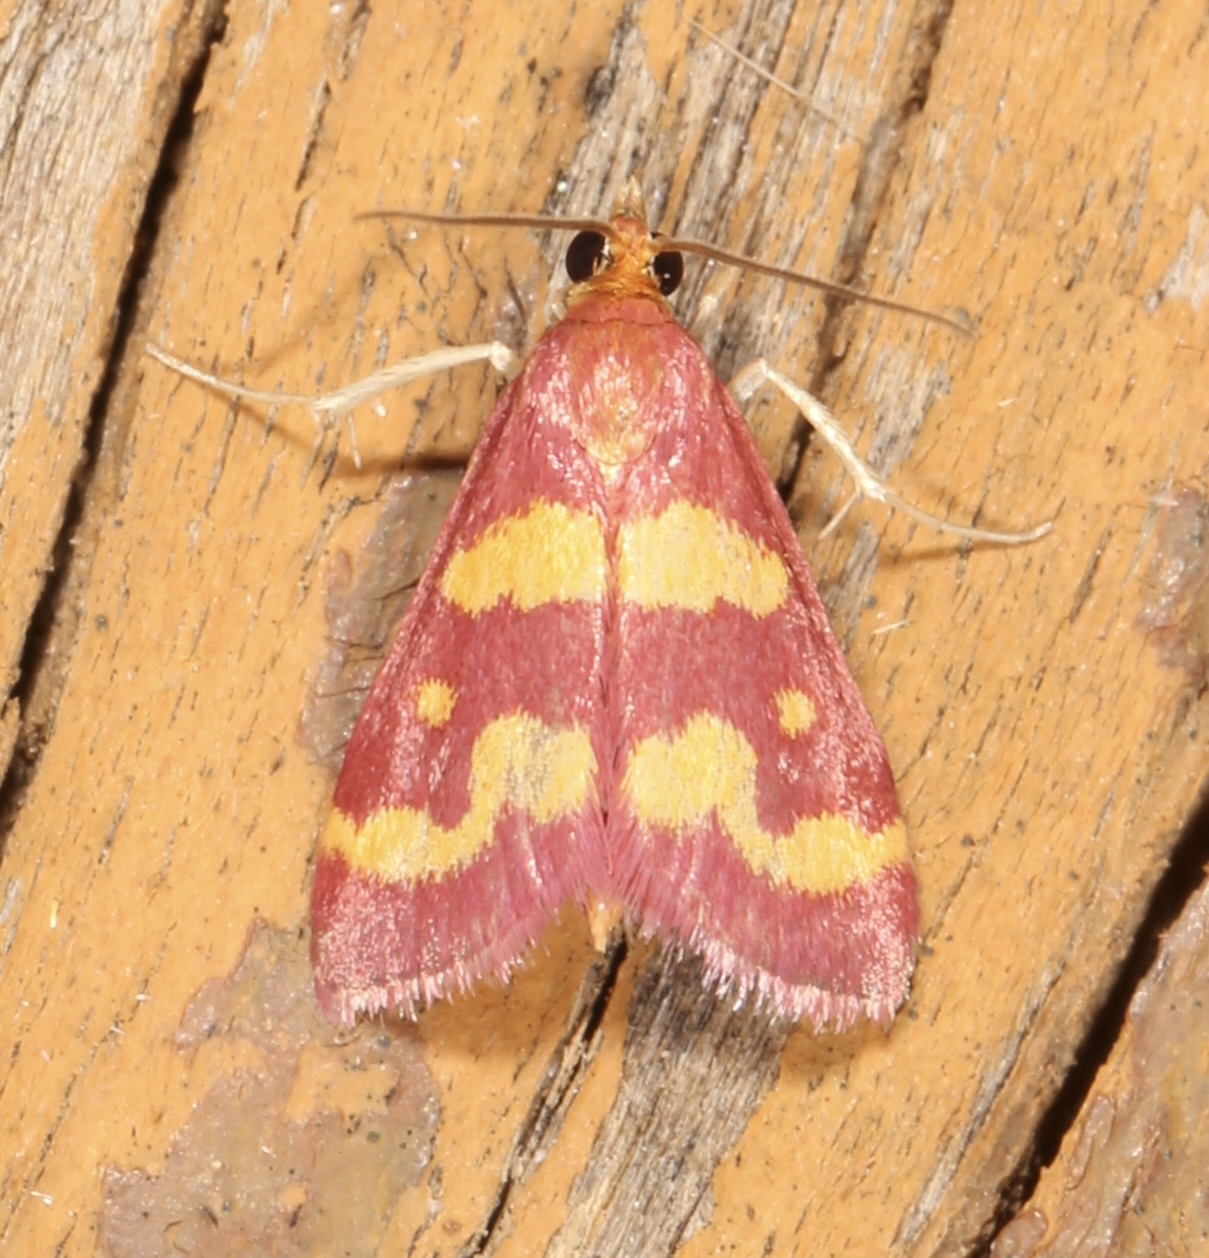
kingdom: Animalia
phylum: Arthropoda
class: Insecta
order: Lepidoptera
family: Crambidae
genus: Pyrausta
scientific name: Pyrausta tyralis
